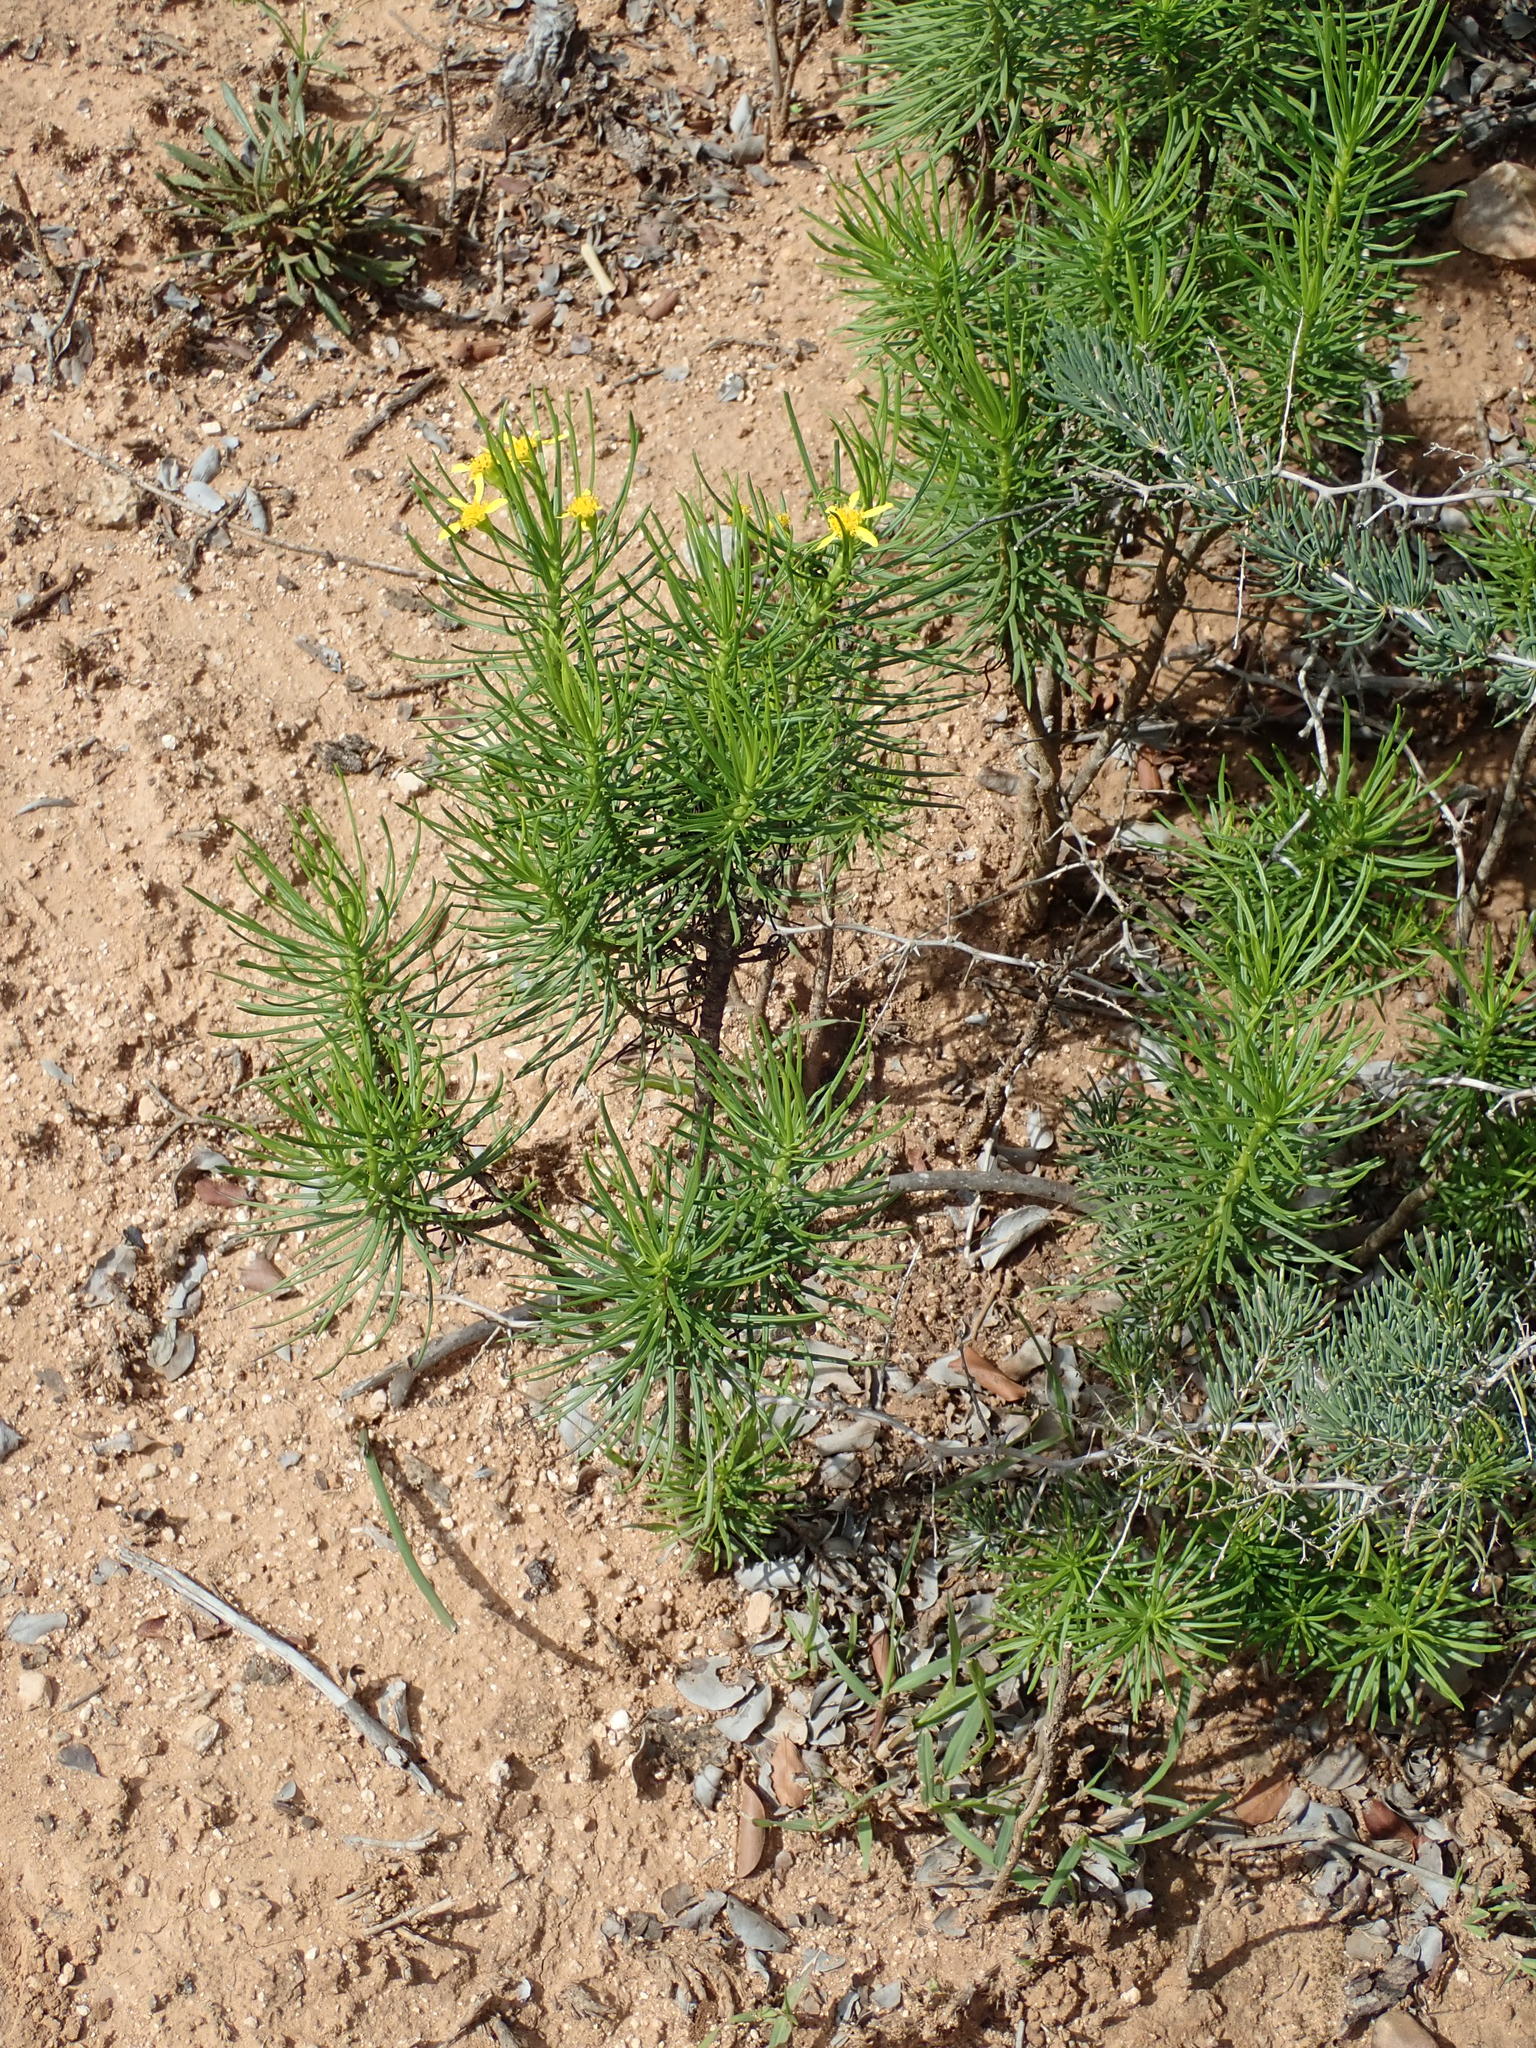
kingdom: Plantae
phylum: Tracheophyta
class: Magnoliopsida
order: Asterales
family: Asteraceae
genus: Euryops
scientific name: Euryops brevipapposus
